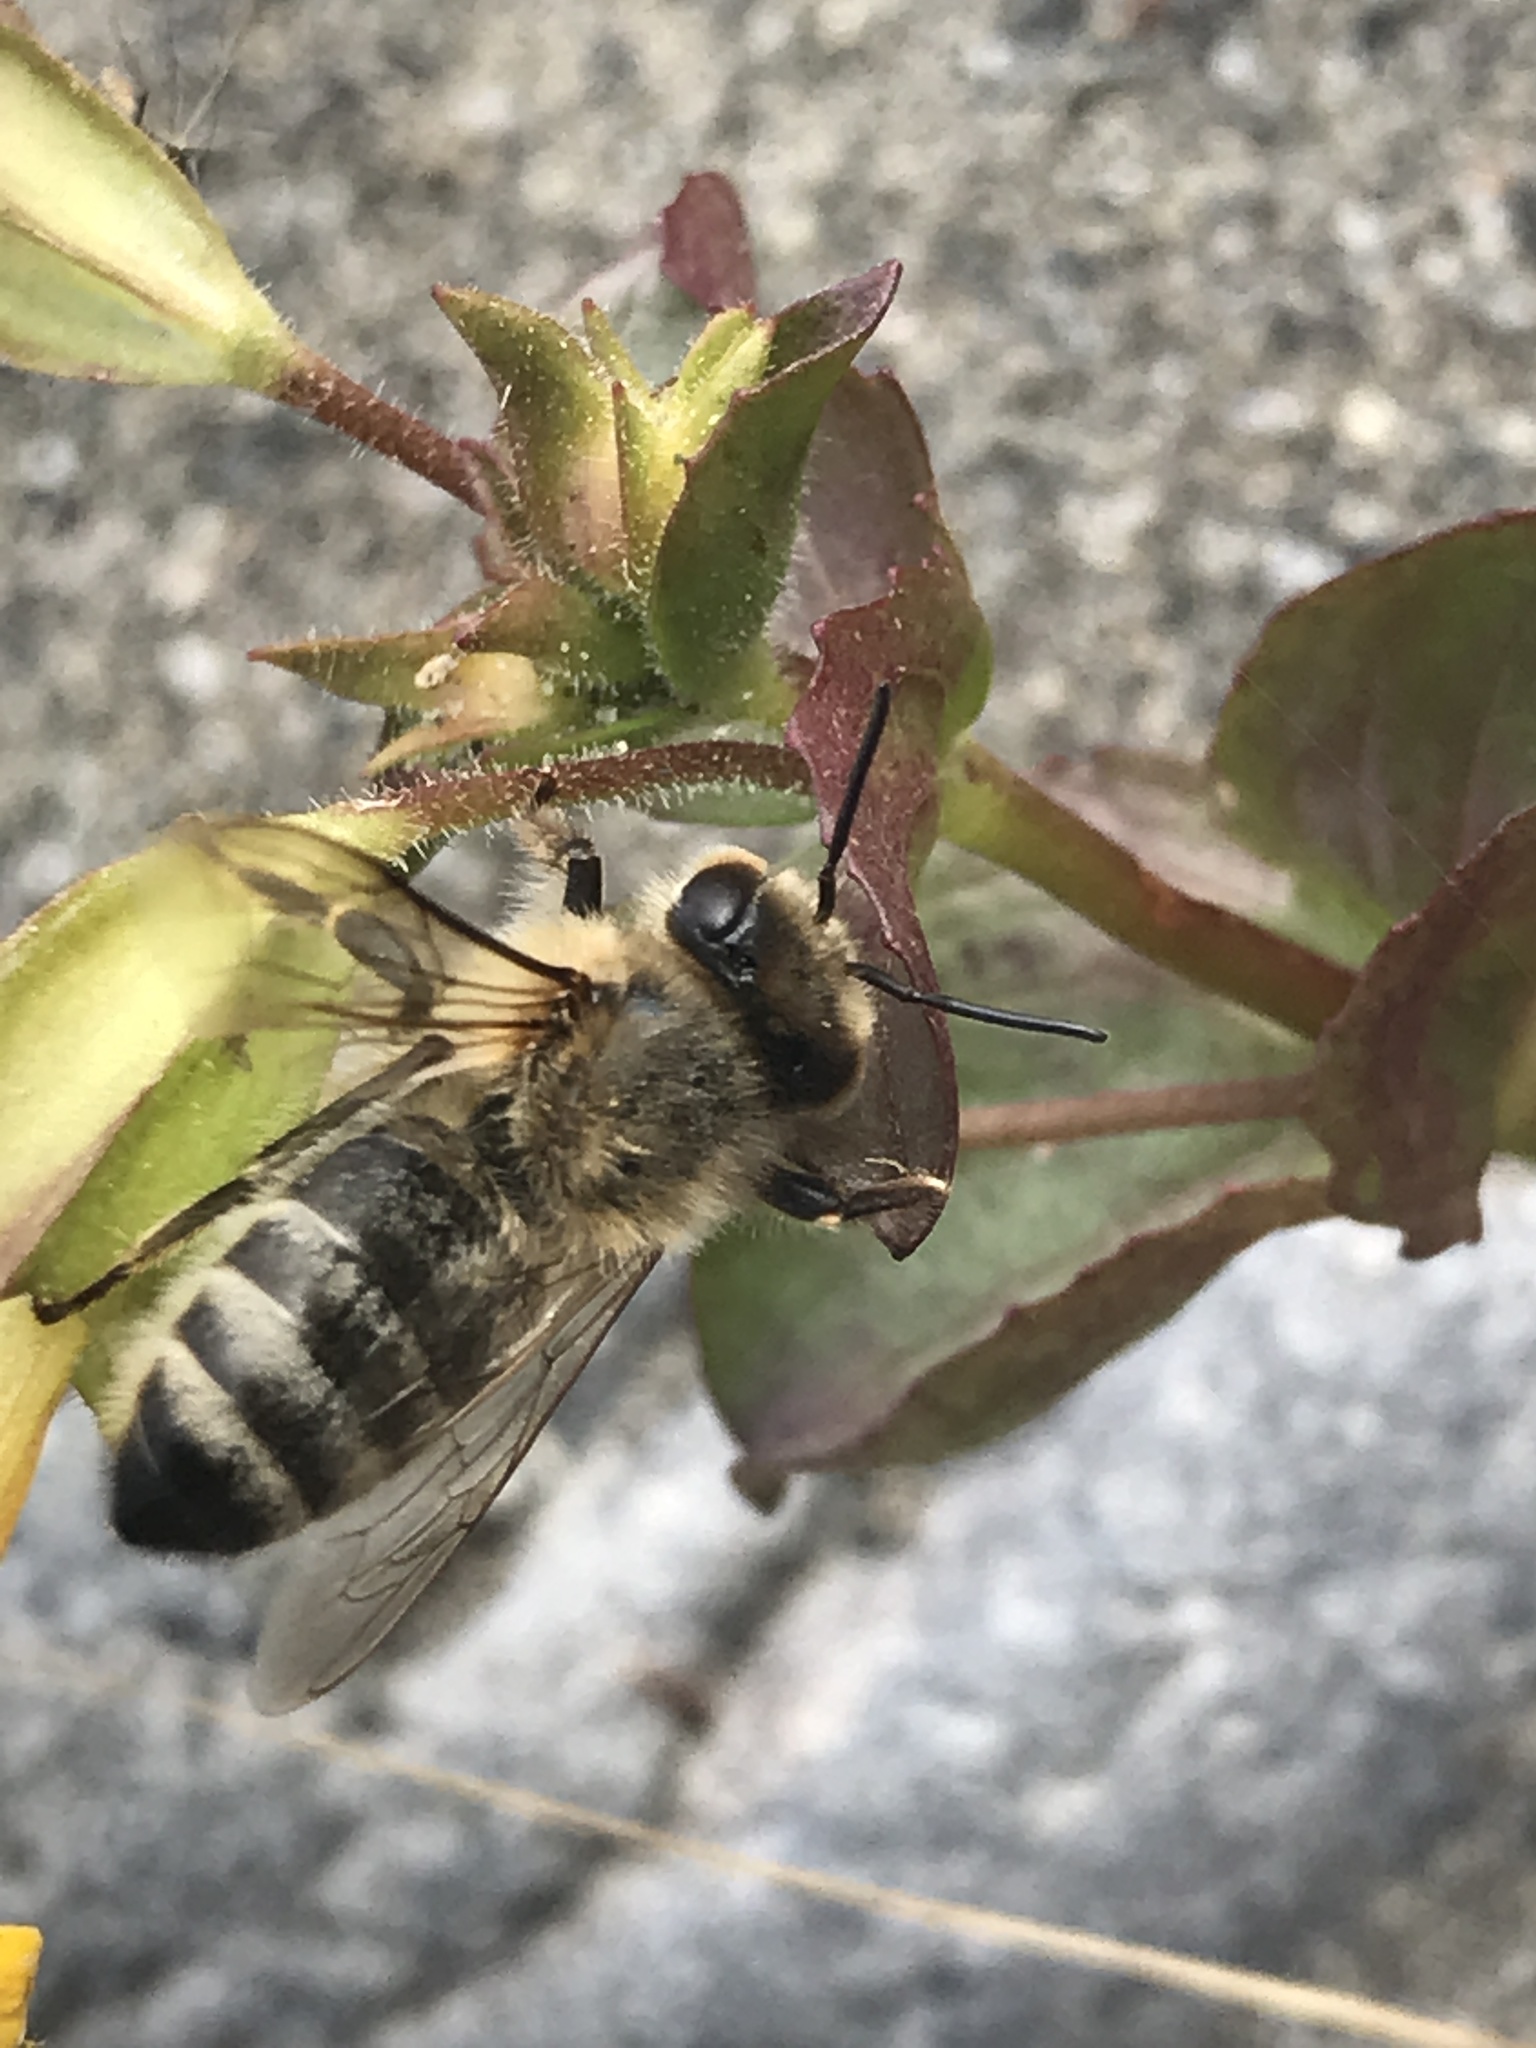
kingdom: Animalia
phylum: Arthropoda
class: Insecta
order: Hymenoptera
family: Apidae
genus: Apis
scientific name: Apis mellifera
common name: Honey bee
